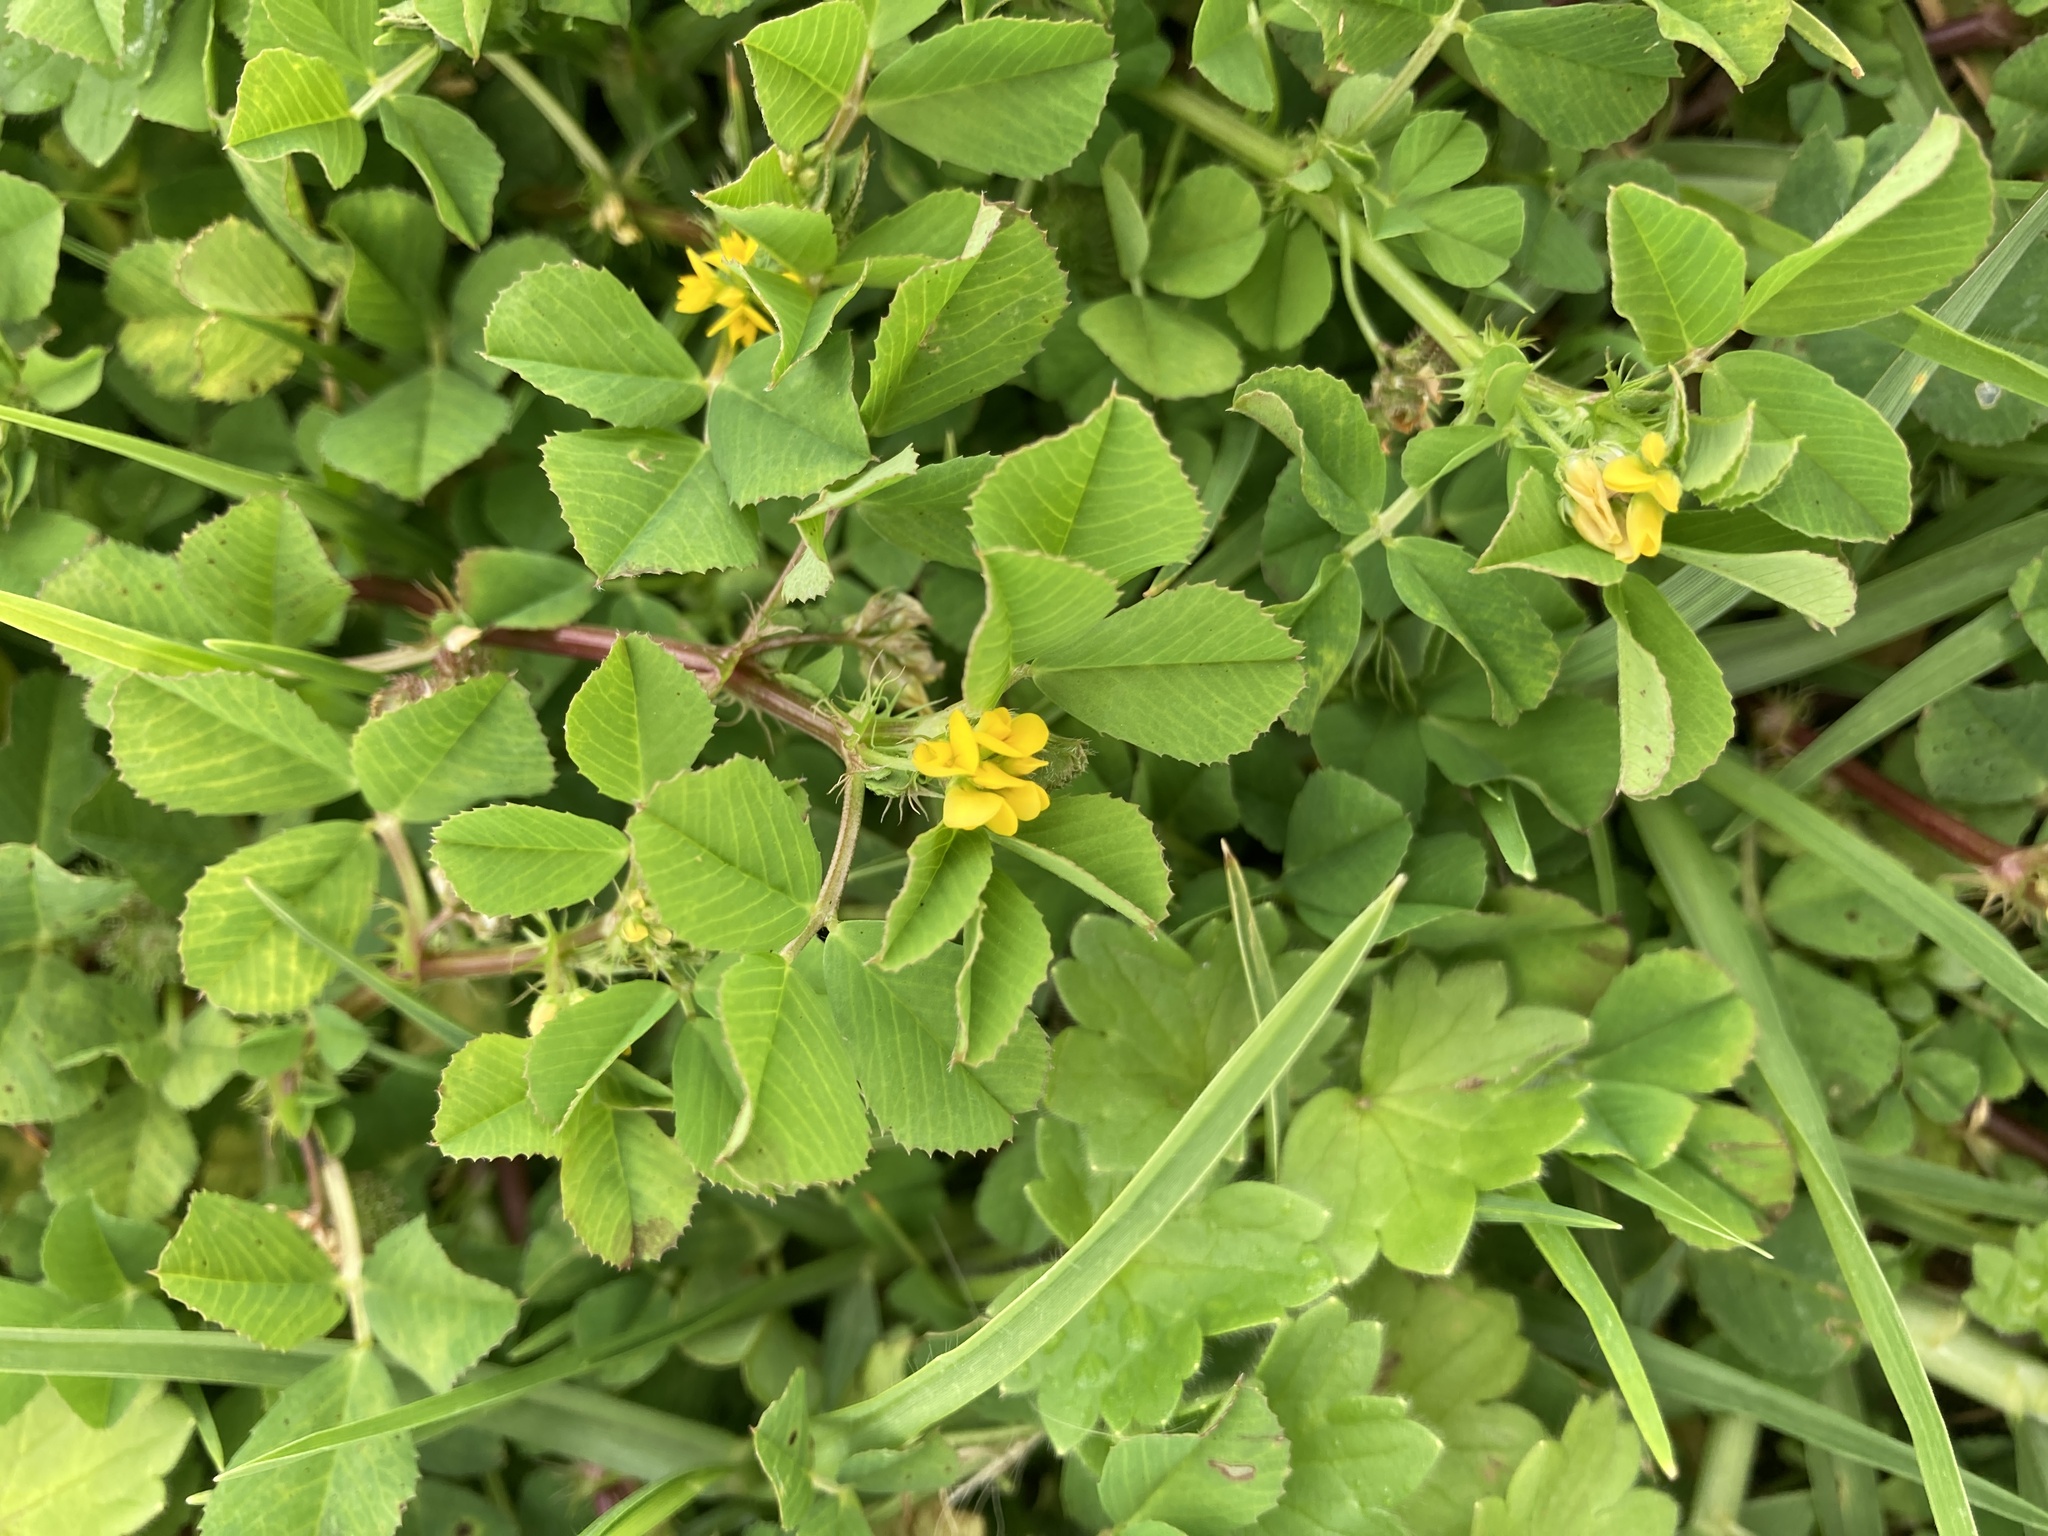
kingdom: Plantae
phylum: Tracheophyta
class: Magnoliopsida
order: Fabales
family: Fabaceae
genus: Medicago
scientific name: Medicago polymorpha
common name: Burclover
